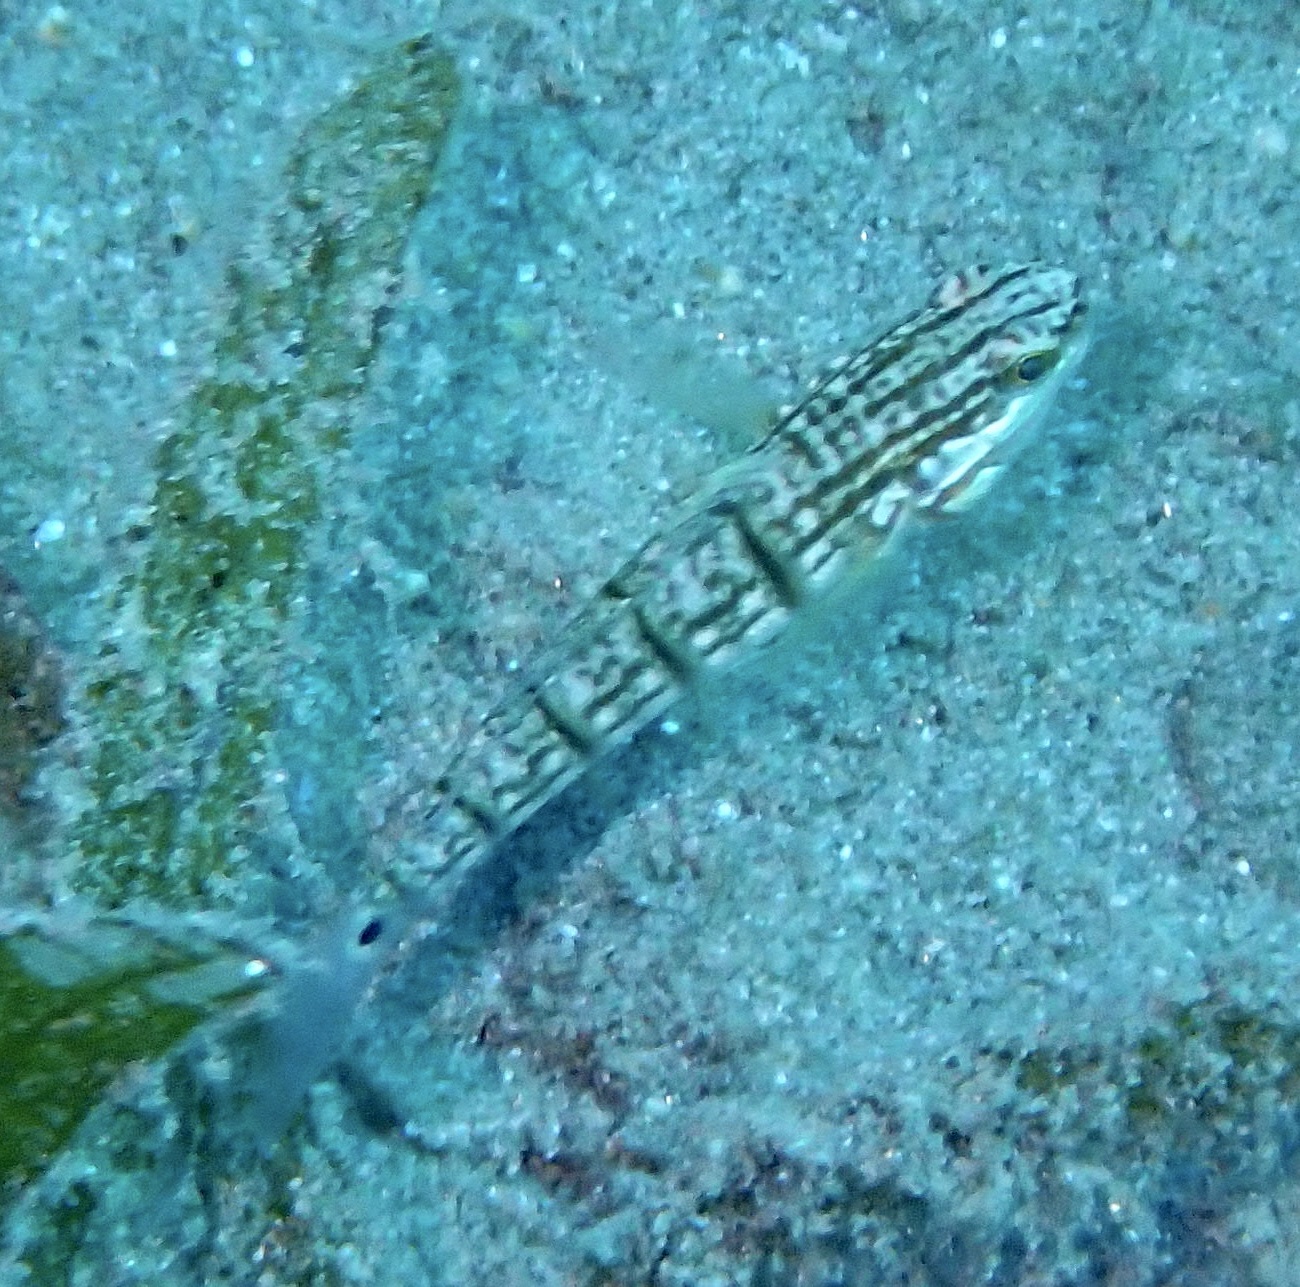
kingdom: Animalia
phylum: Chordata
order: Perciformes
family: Gobiidae
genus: Amblygobius
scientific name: Amblygobius albimaculatus
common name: Butterfly goby
